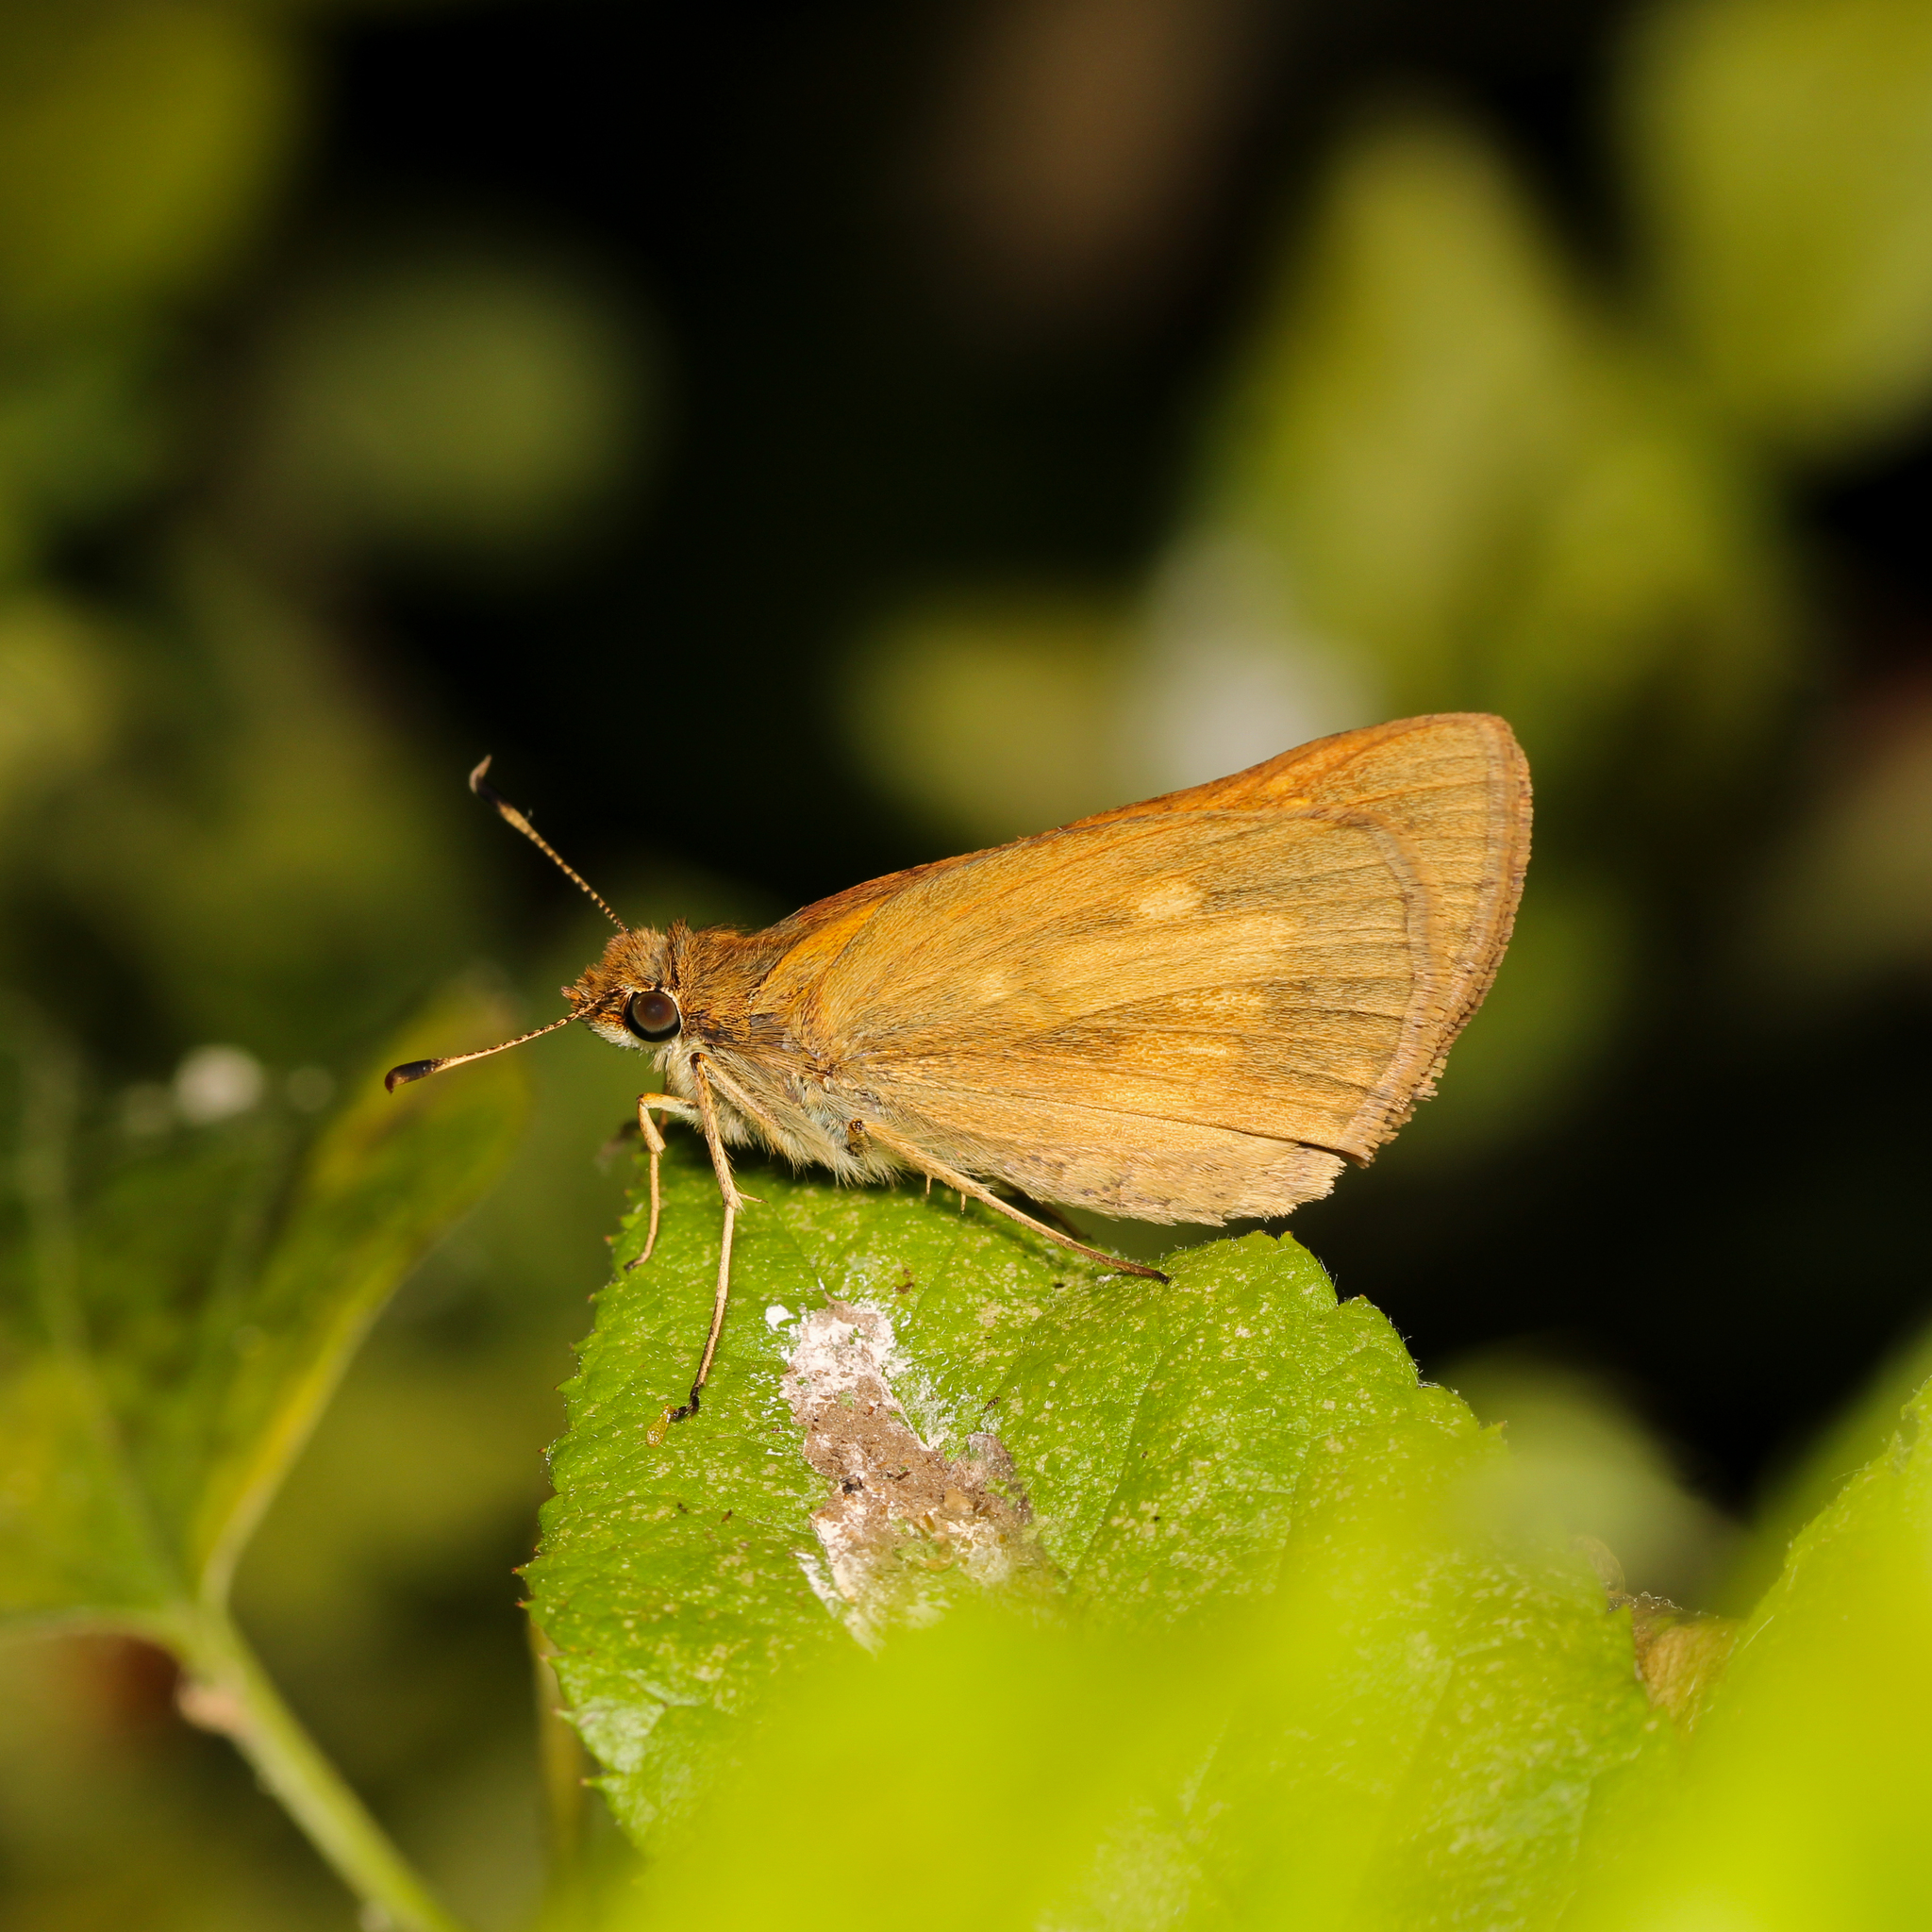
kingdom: Animalia
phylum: Arthropoda
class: Insecta
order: Lepidoptera
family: Hesperiidae
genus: Poanes
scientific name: Poanes viator
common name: Broad-winged skipper
